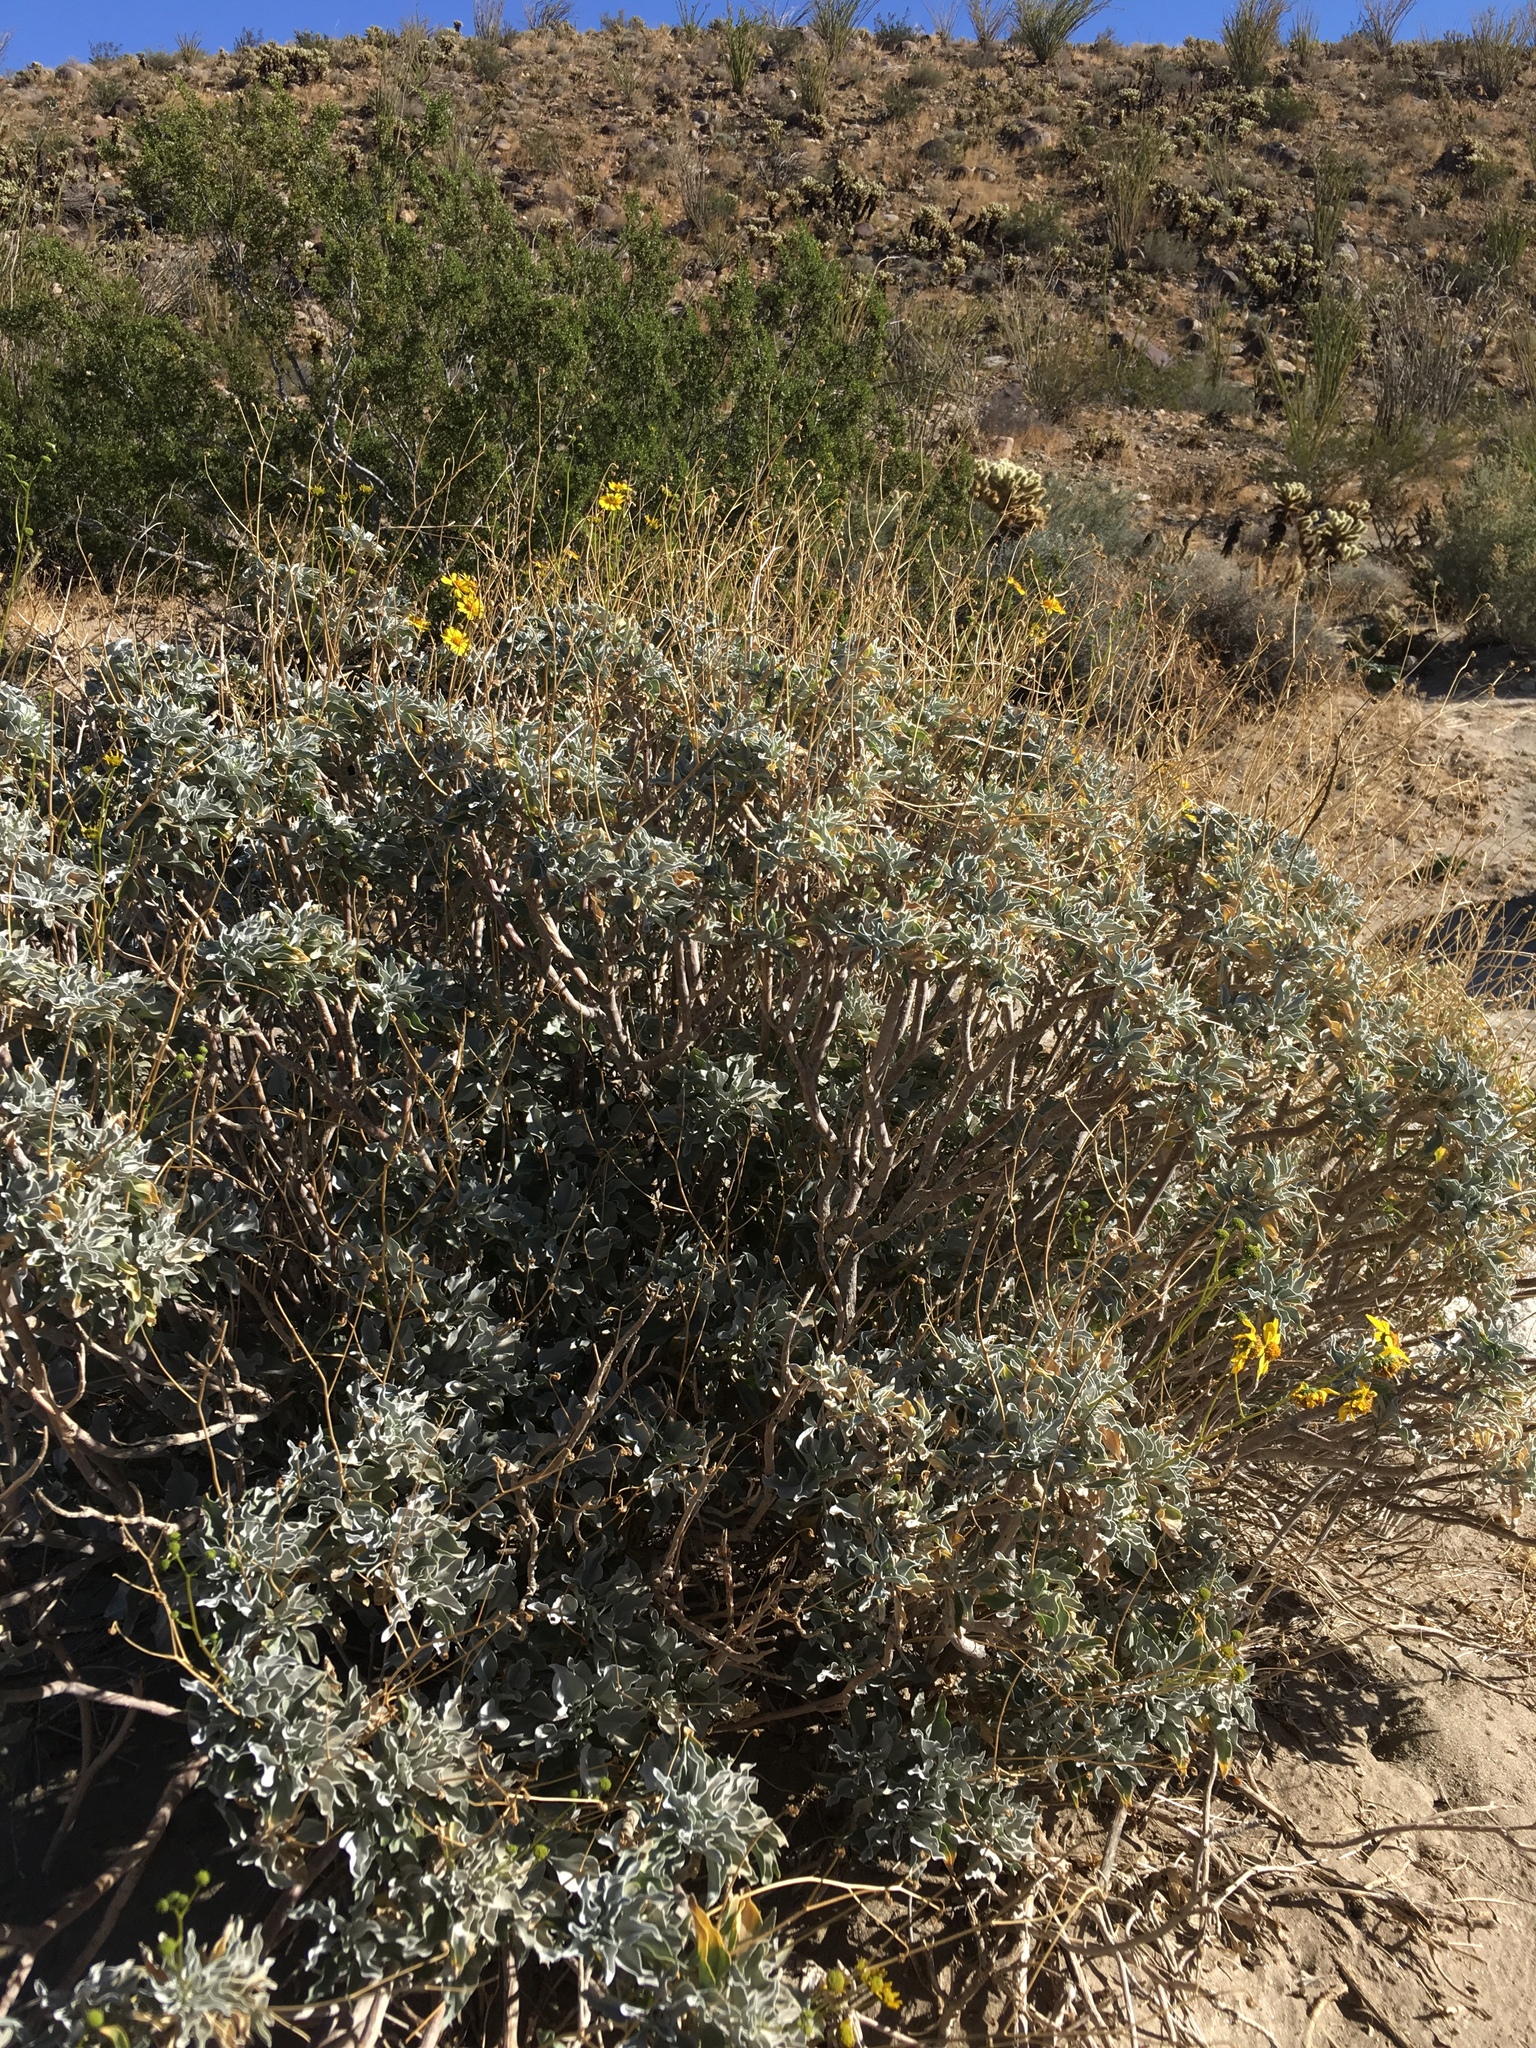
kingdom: Plantae
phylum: Tracheophyta
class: Magnoliopsida
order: Asterales
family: Asteraceae
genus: Encelia
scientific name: Encelia farinosa
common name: Brittlebush
